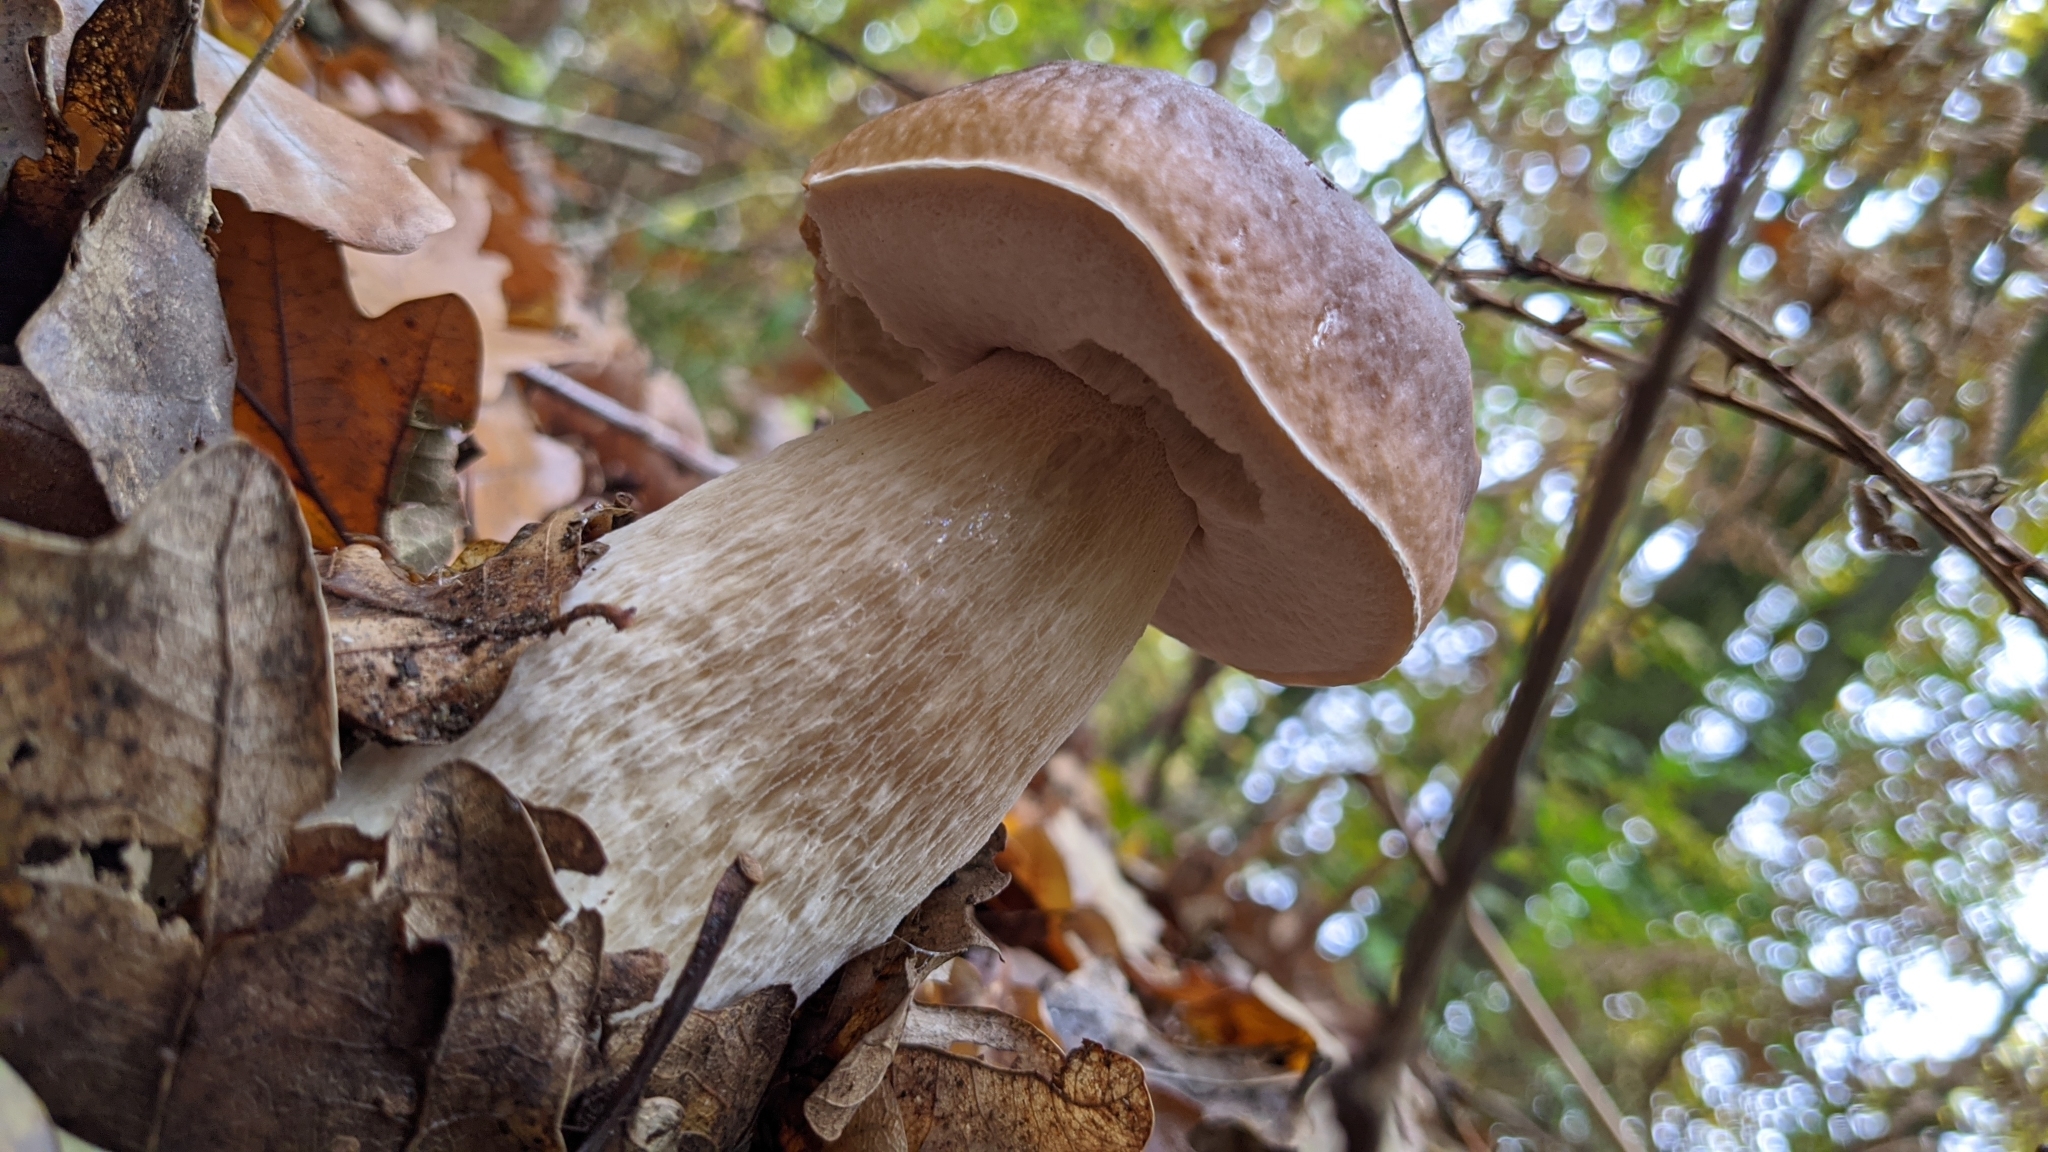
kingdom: Fungi
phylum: Basidiomycota
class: Agaricomycetes
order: Boletales
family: Boletaceae
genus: Boletus
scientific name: Boletus edulis
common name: Cep
